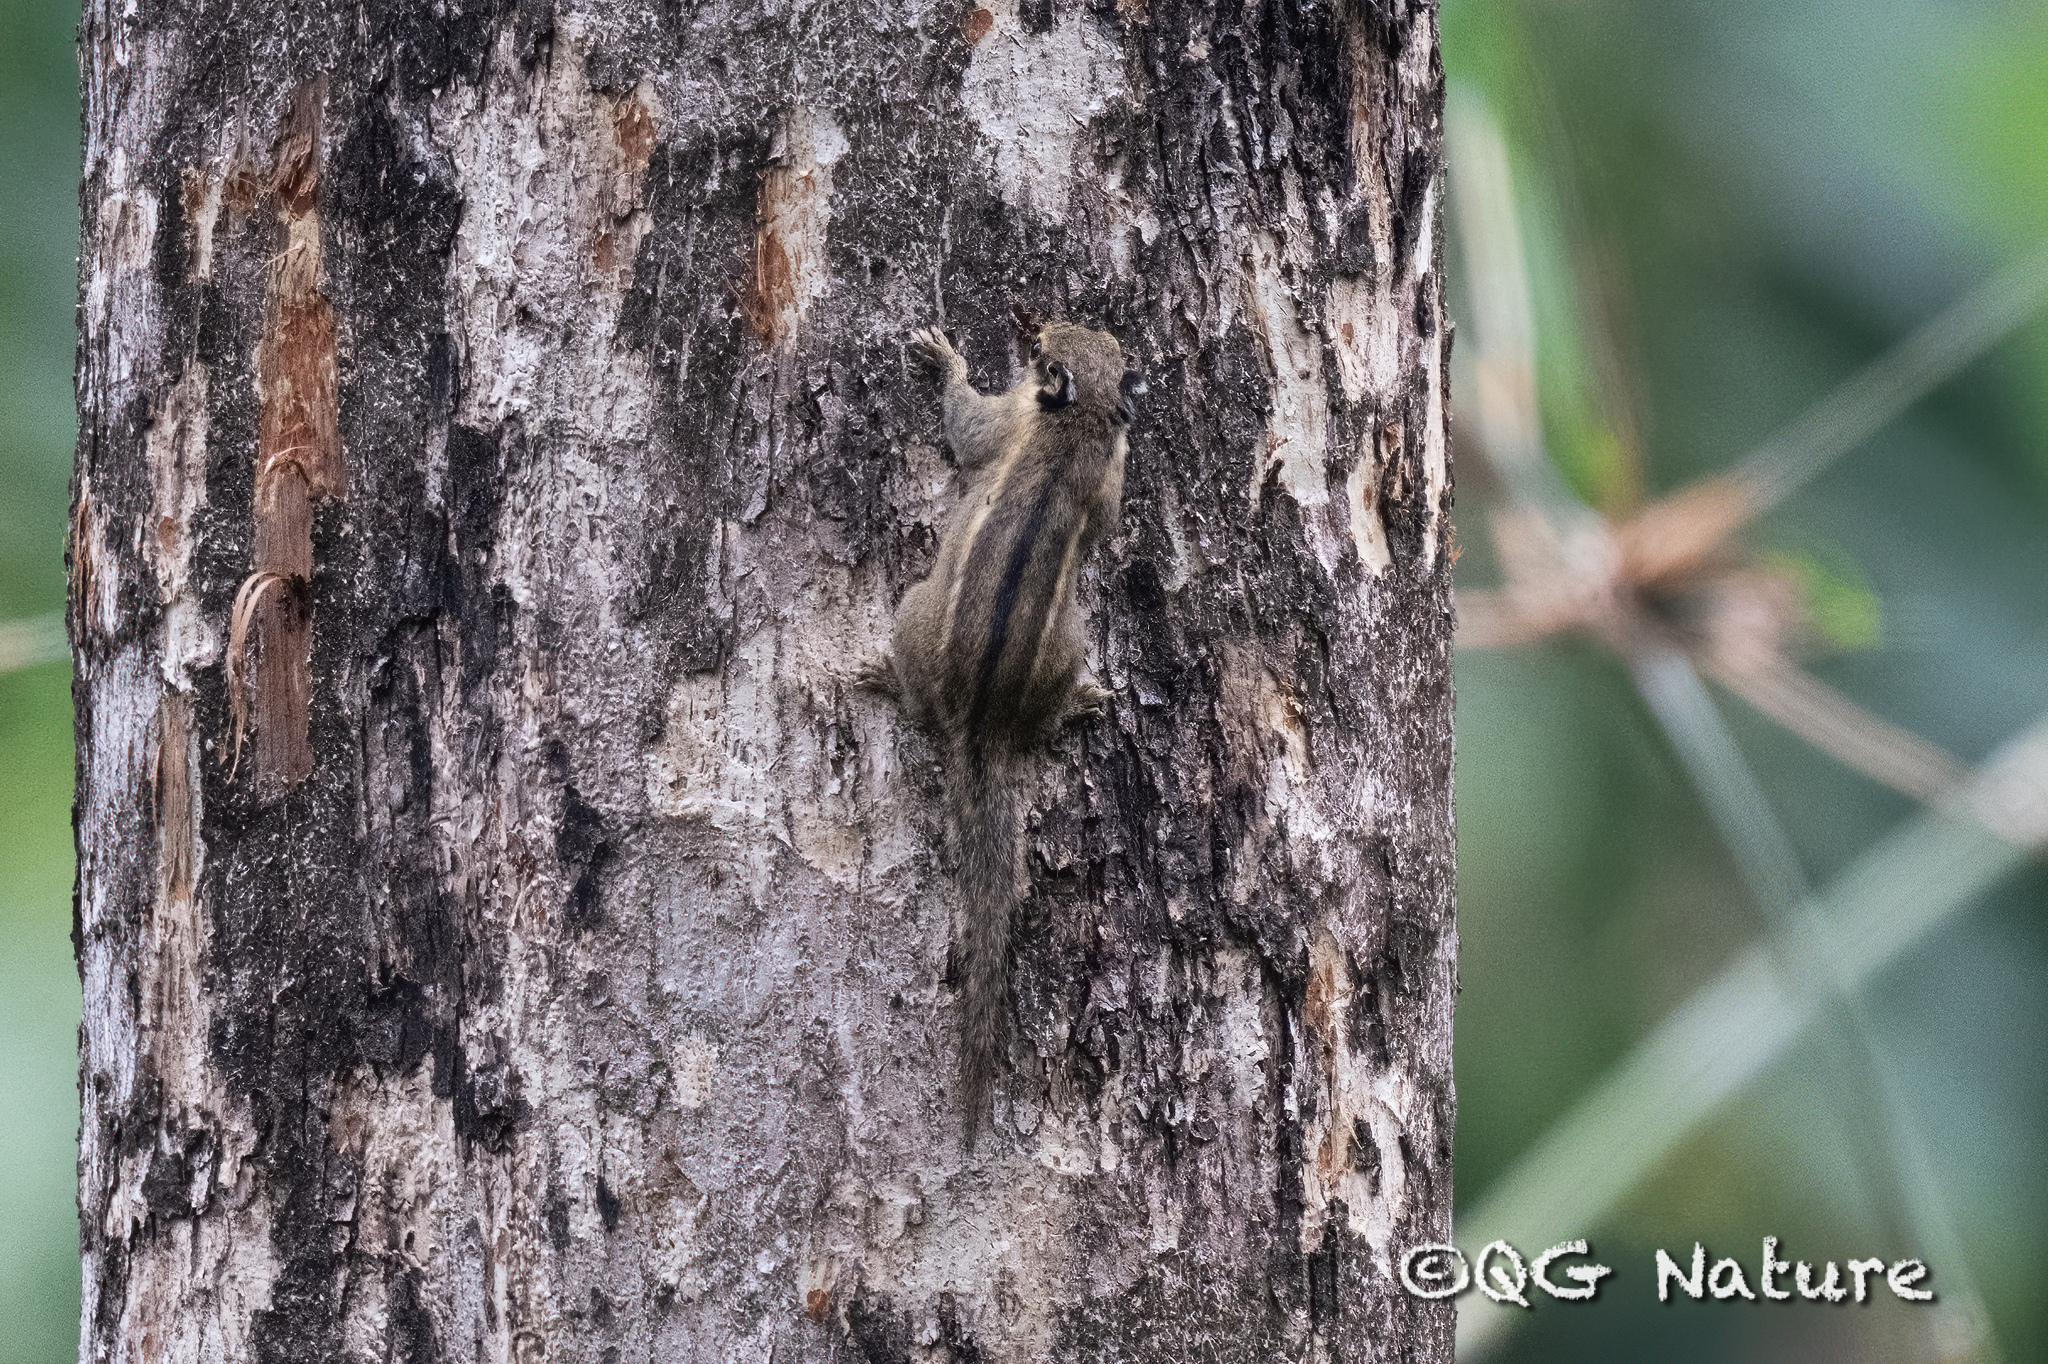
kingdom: Animalia
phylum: Chordata
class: Mammalia
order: Rodentia
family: Sciuridae
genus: Tamiops
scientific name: Tamiops mcclellandii
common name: Himalayan striped squirrel
